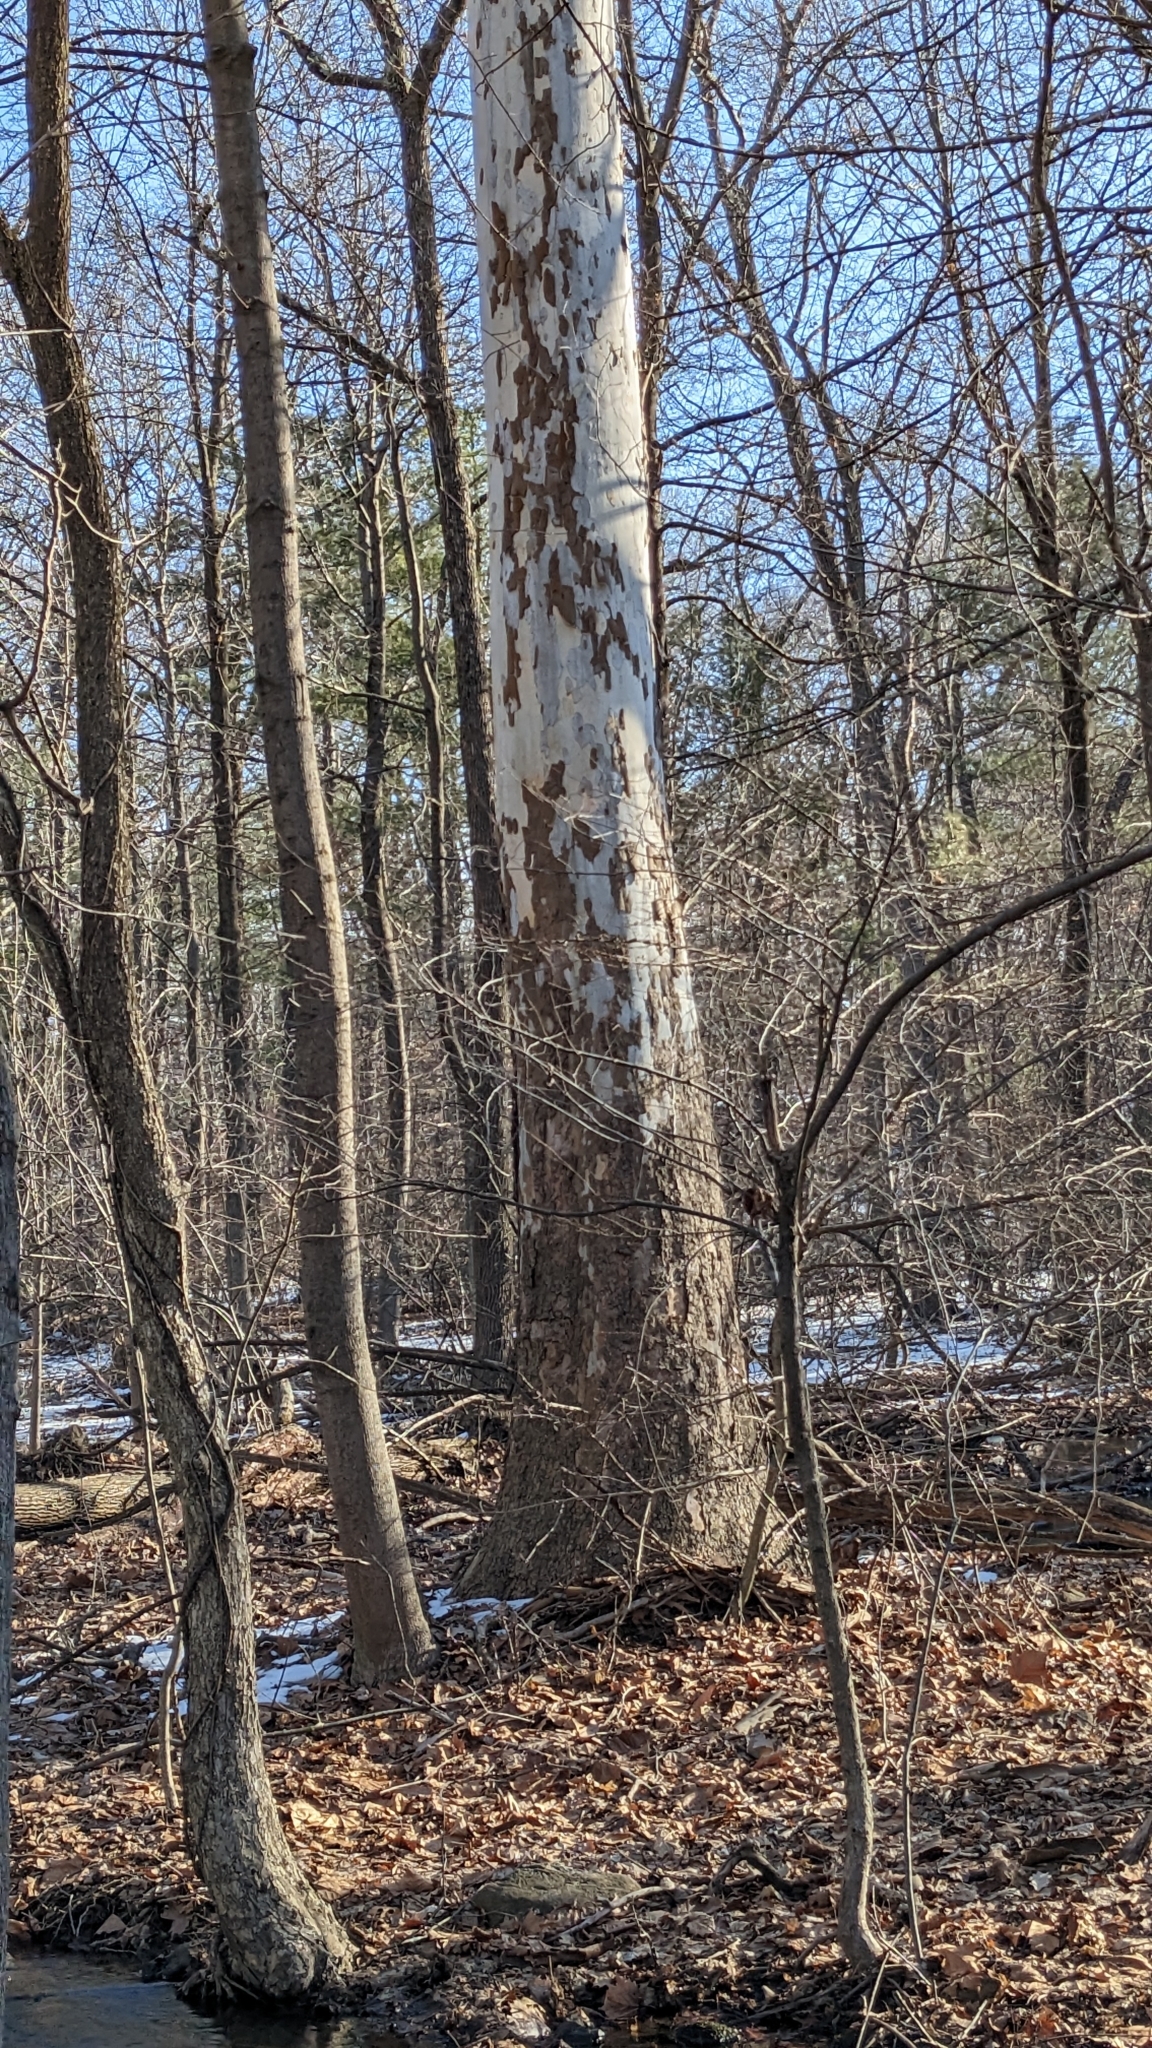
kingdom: Plantae
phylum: Tracheophyta
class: Magnoliopsida
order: Proteales
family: Platanaceae
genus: Platanus
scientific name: Platanus occidentalis
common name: American sycamore
